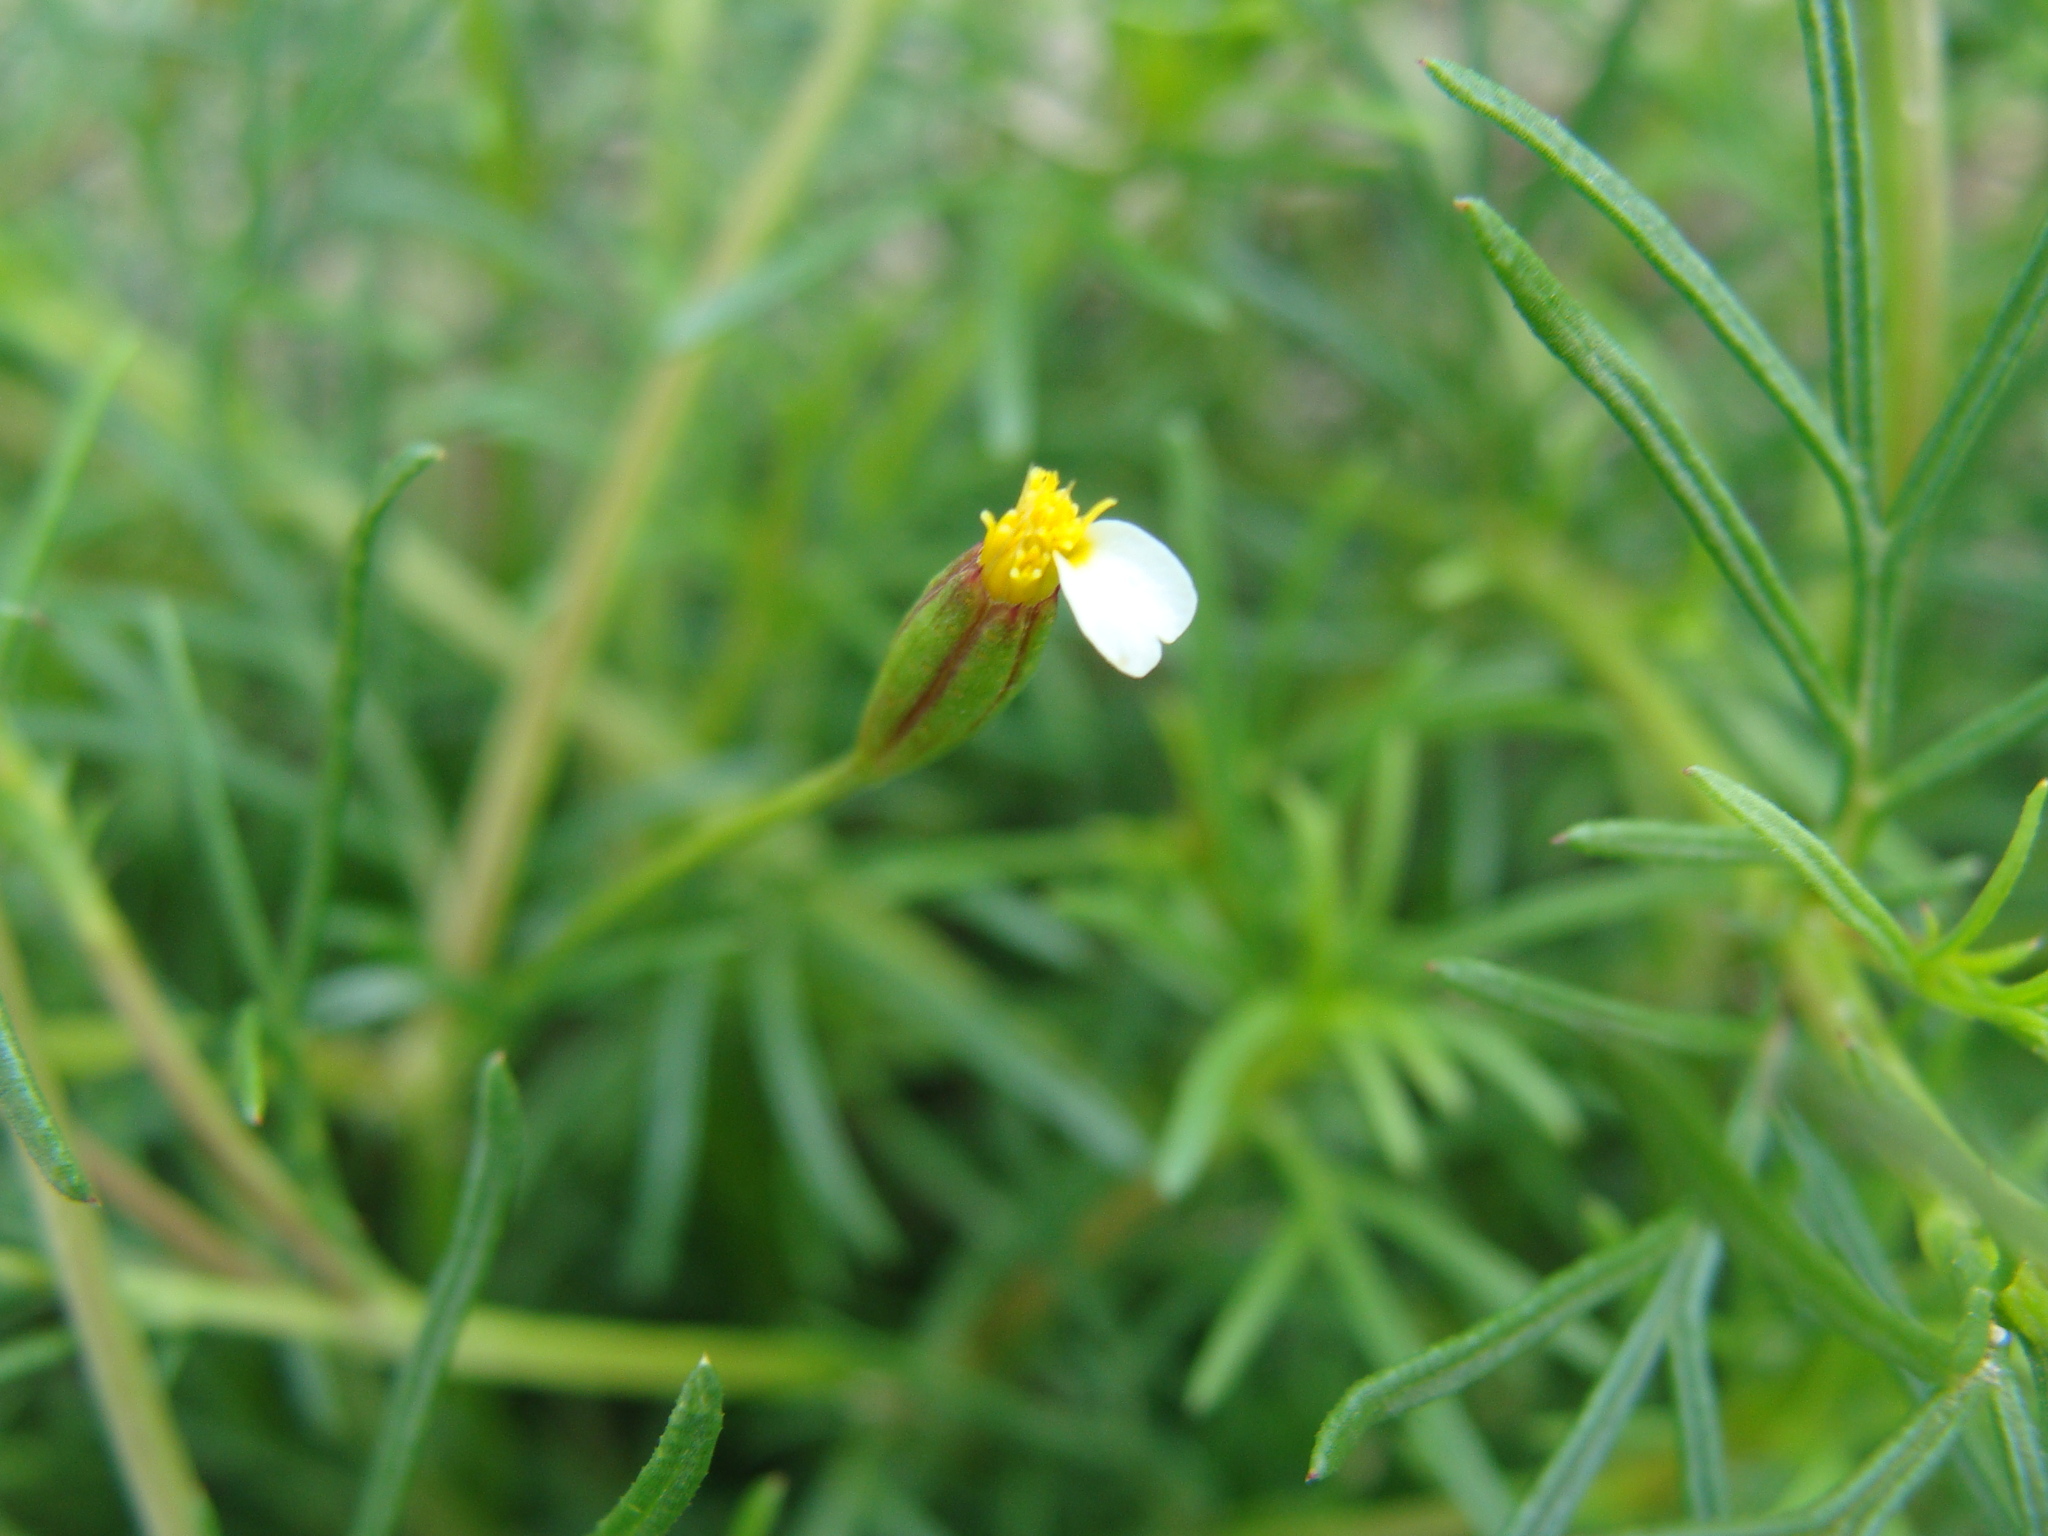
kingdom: Plantae
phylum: Tracheophyta
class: Magnoliopsida
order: Asterales
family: Asteraceae
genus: Tagetes
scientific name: Tagetes filifolia
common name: Lesser marigold
